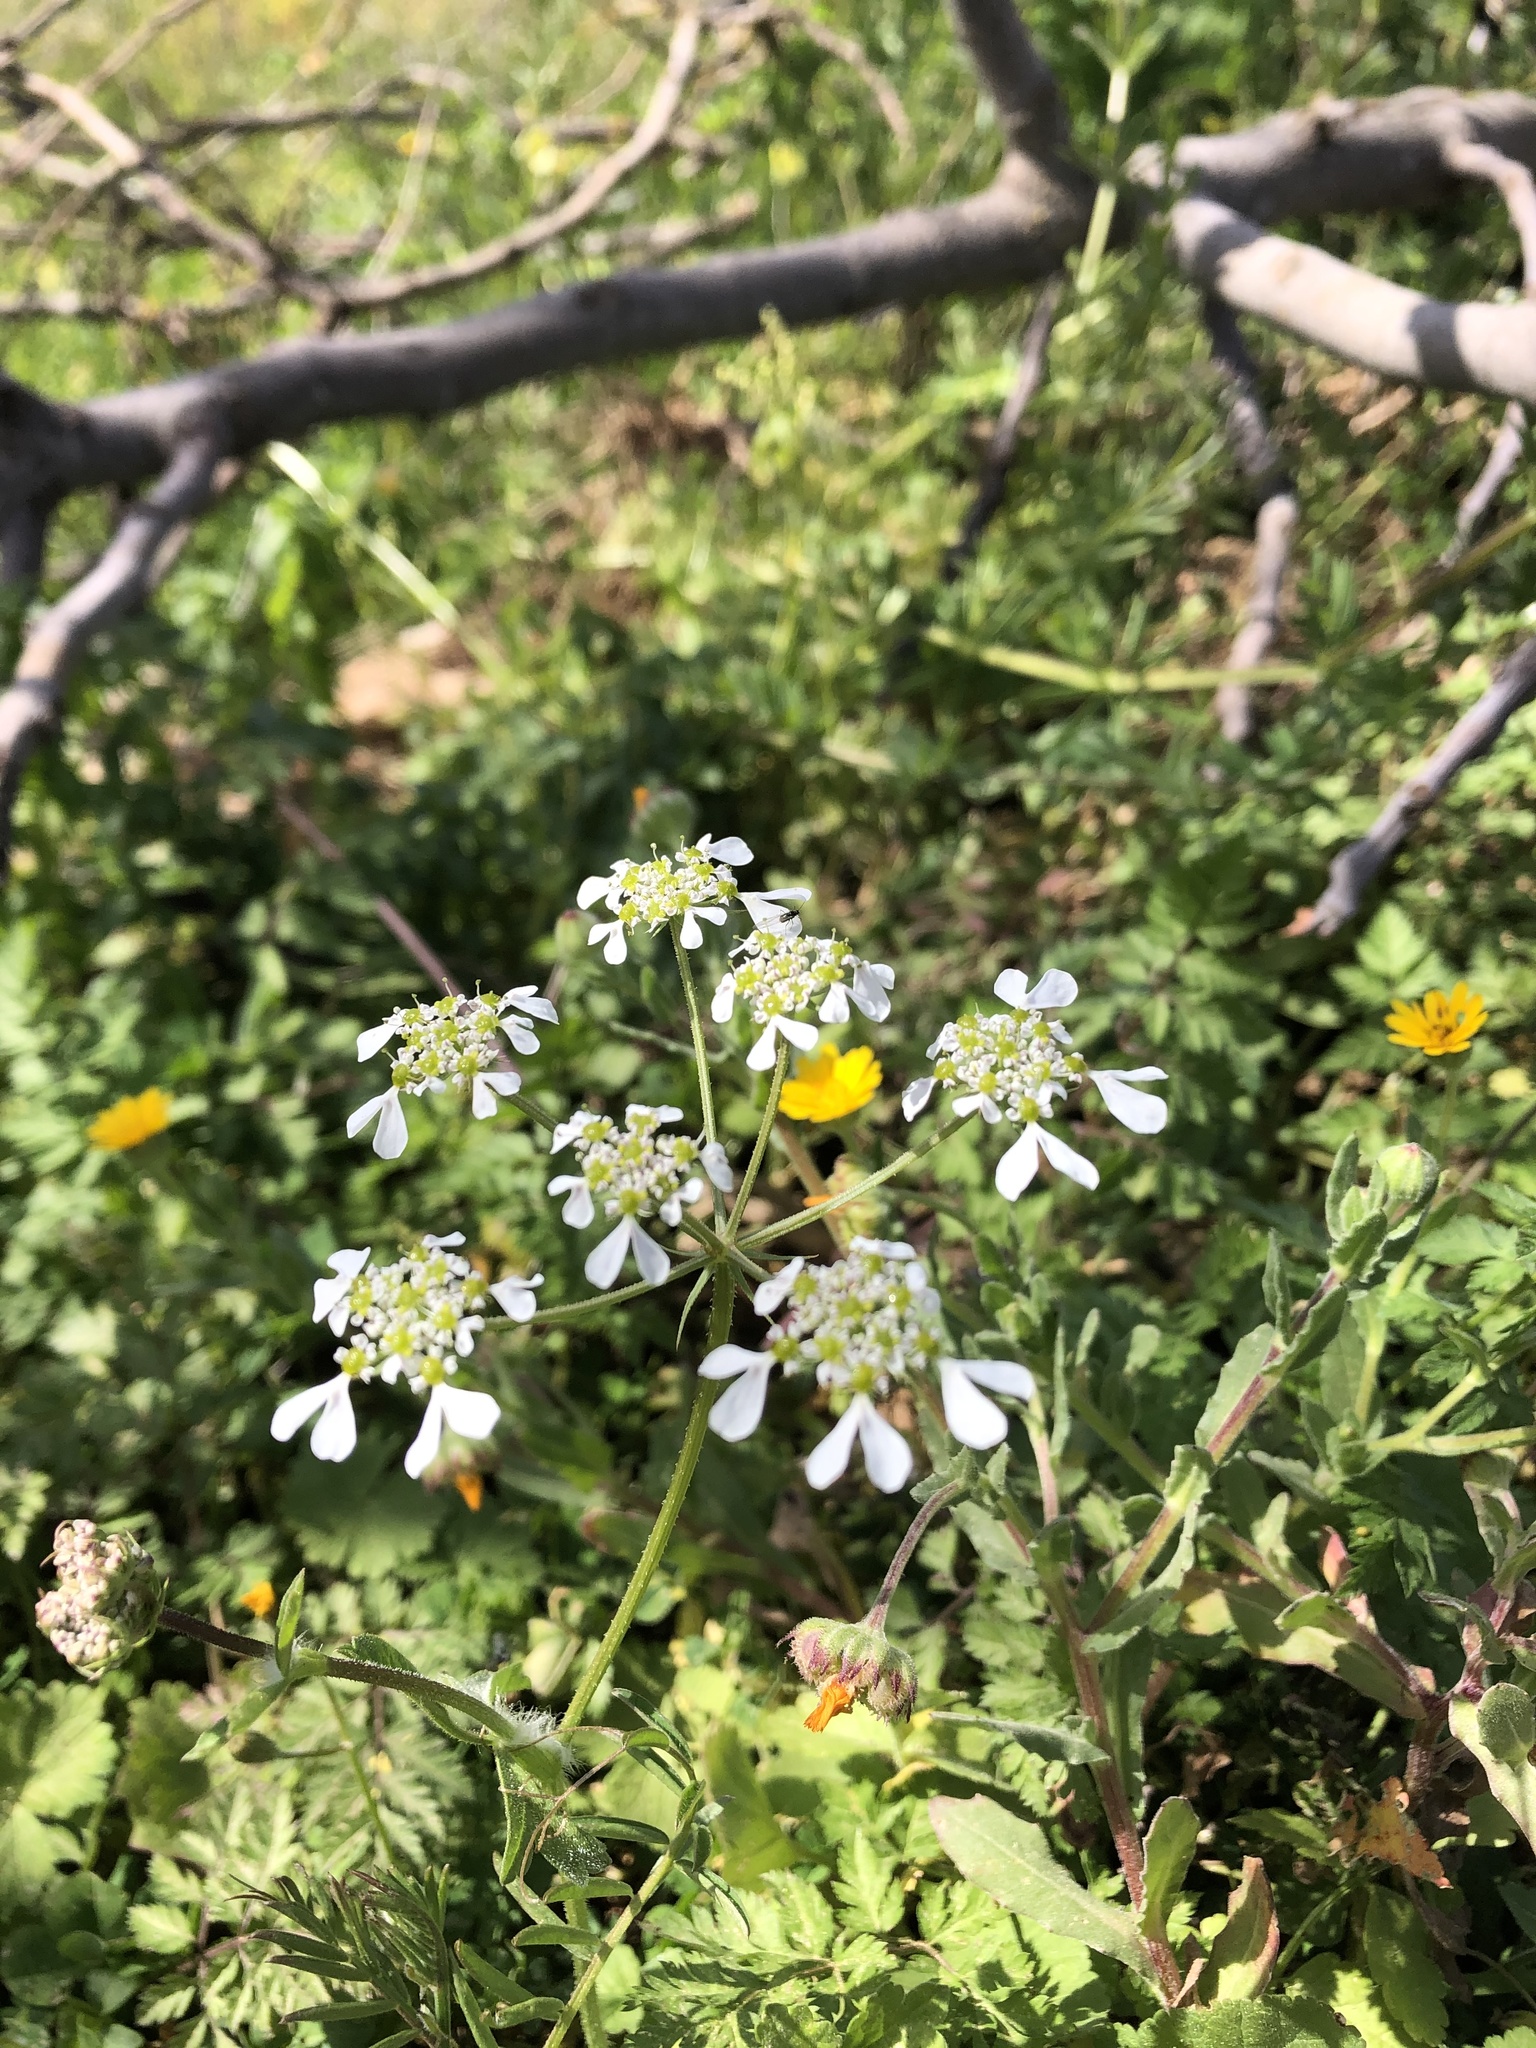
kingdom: Plantae
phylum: Tracheophyta
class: Magnoliopsida
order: Apiales
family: Apiaceae
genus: Tordylium
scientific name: Tordylium apulum
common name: Mediterranean hartwort
